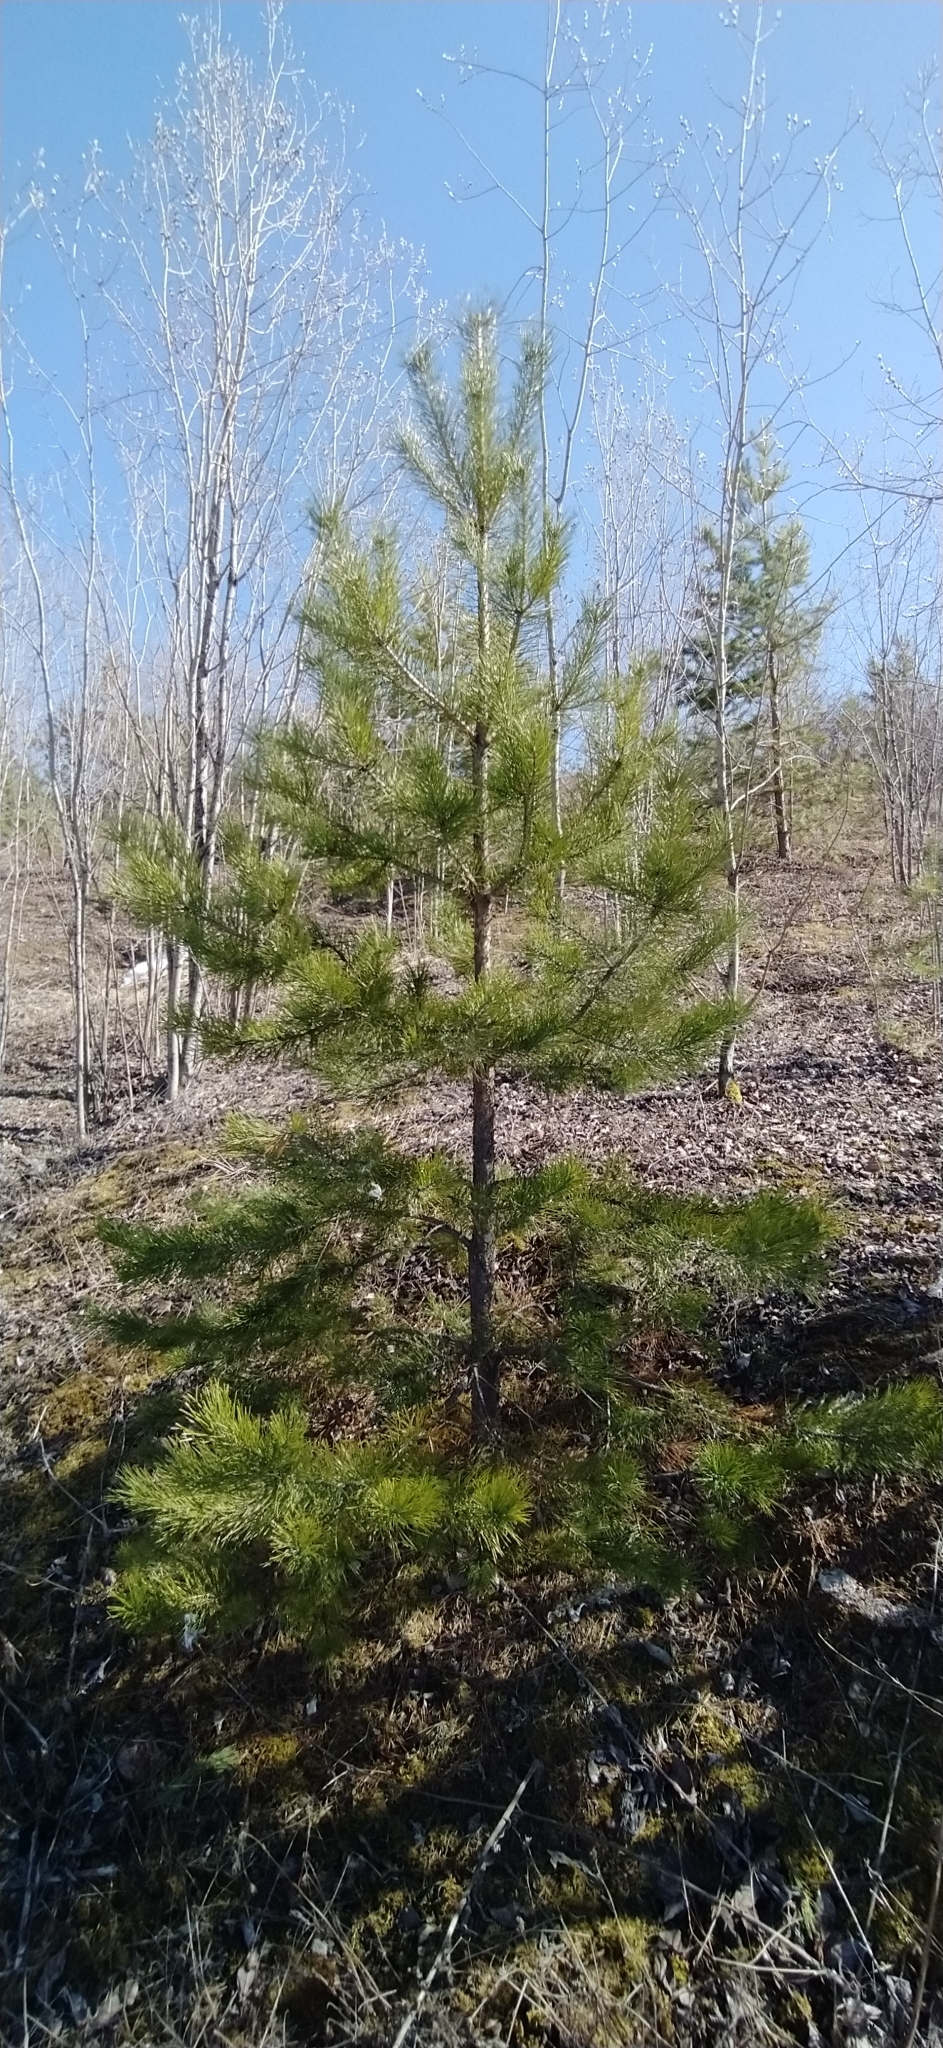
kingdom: Plantae
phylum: Tracheophyta
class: Pinopsida
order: Pinales
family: Pinaceae
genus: Pinus
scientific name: Pinus sylvestris
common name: Scots pine
